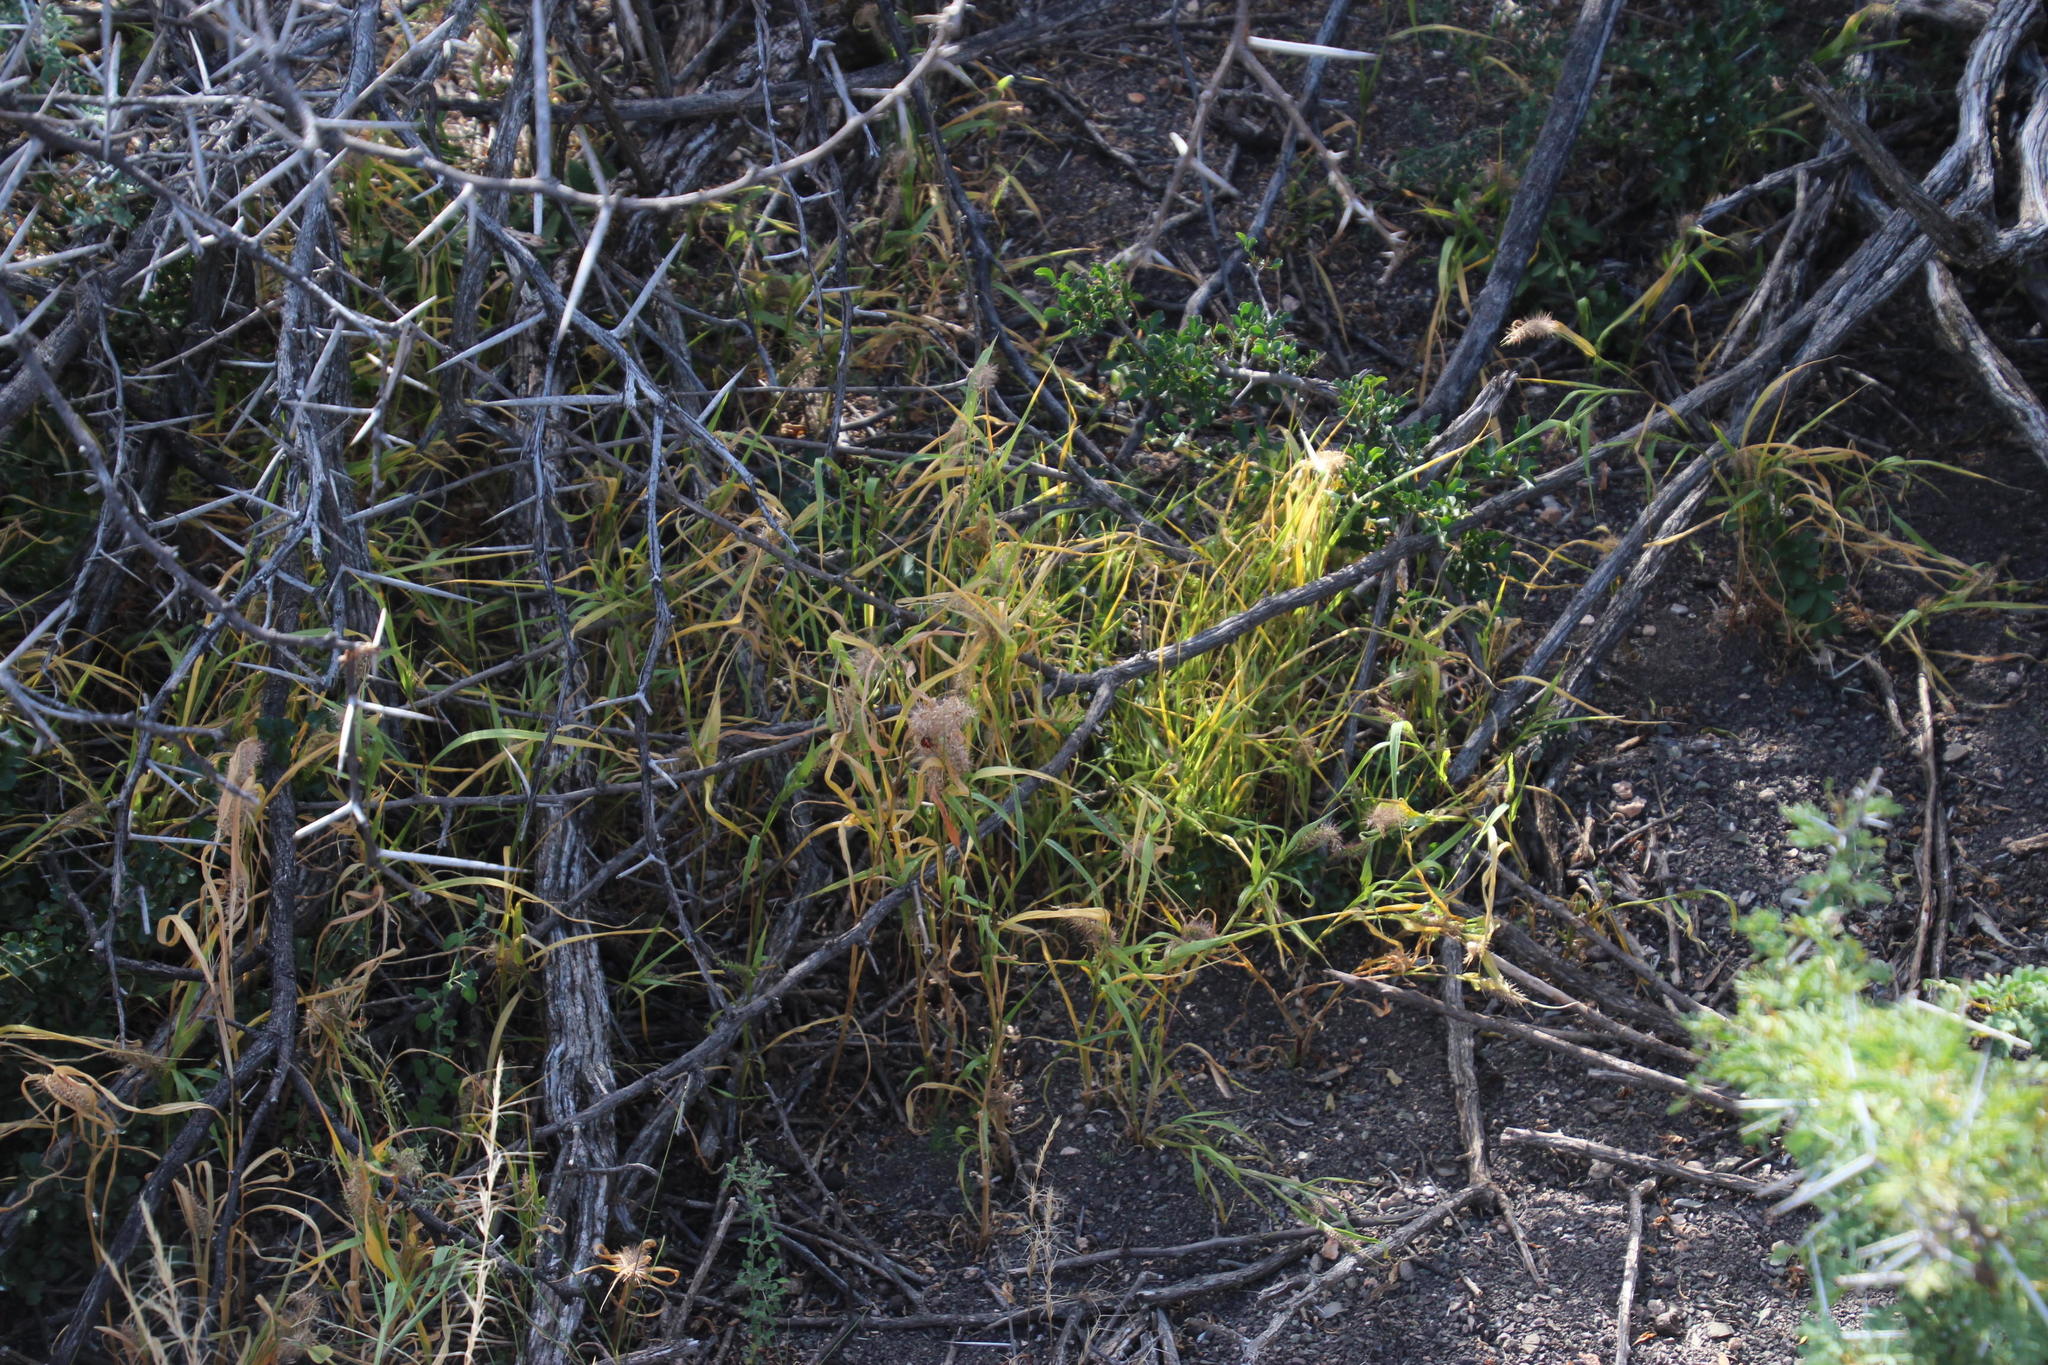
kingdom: Plantae
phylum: Tracheophyta
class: Liliopsida
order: Poales
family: Poaceae
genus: Setaria
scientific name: Setaria verticillata
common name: Hooked bristlegrass
